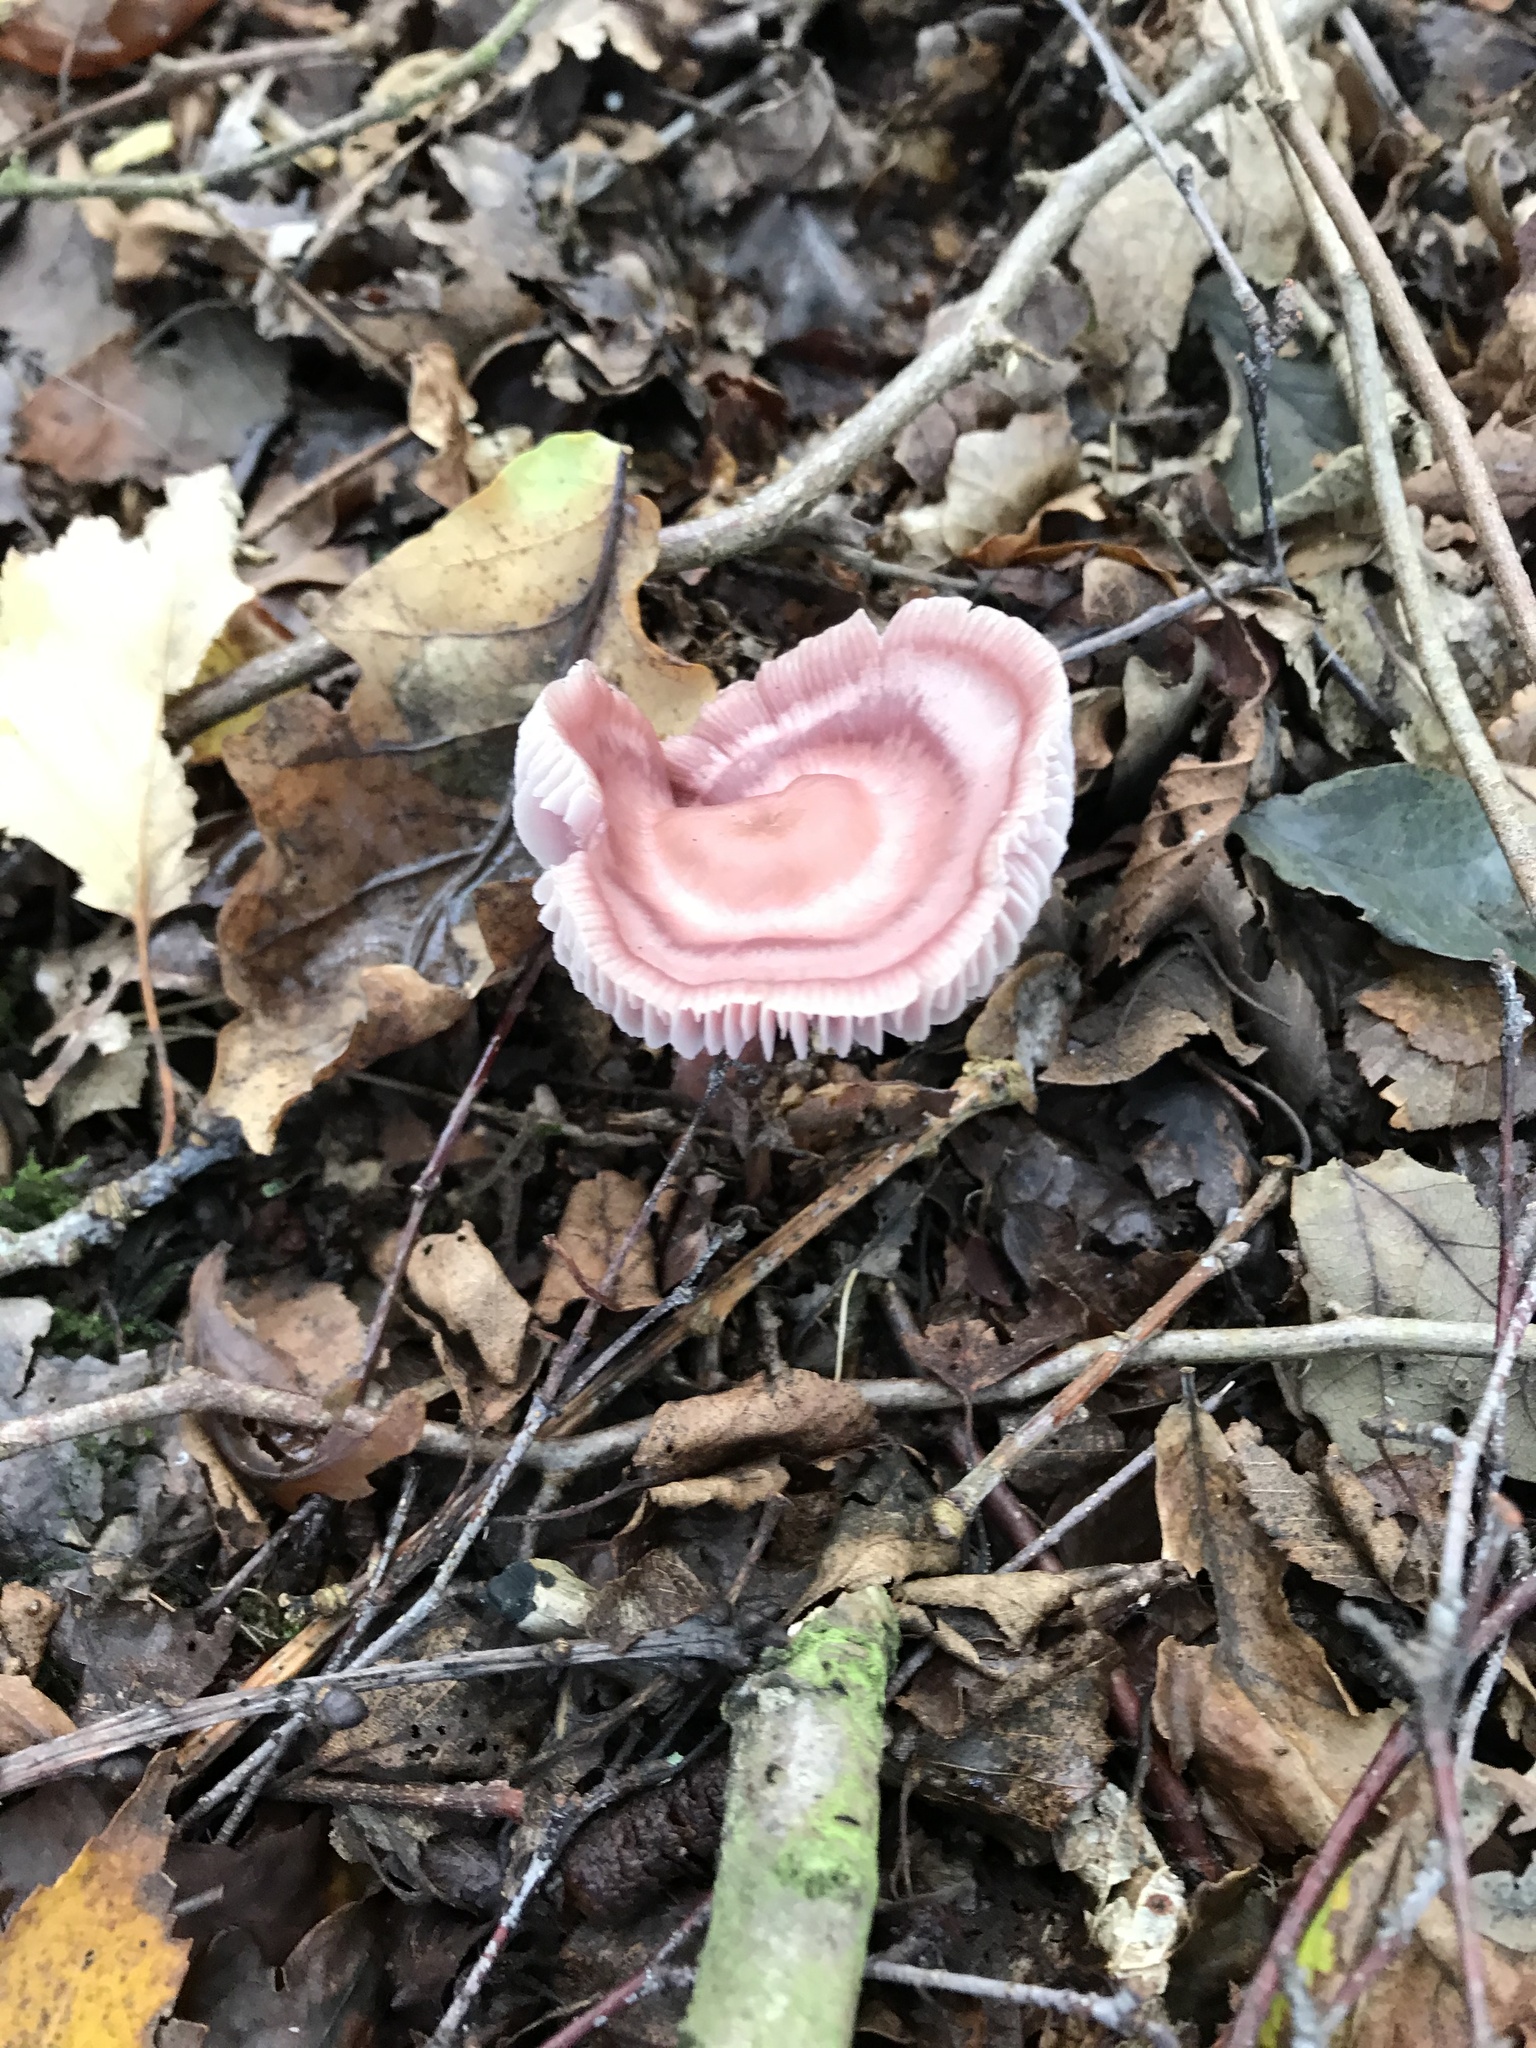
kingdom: Fungi
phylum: Basidiomycota
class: Agaricomycetes
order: Agaricales
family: Mycenaceae
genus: Mycena
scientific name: Mycena rosea
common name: Rosy bonnet
